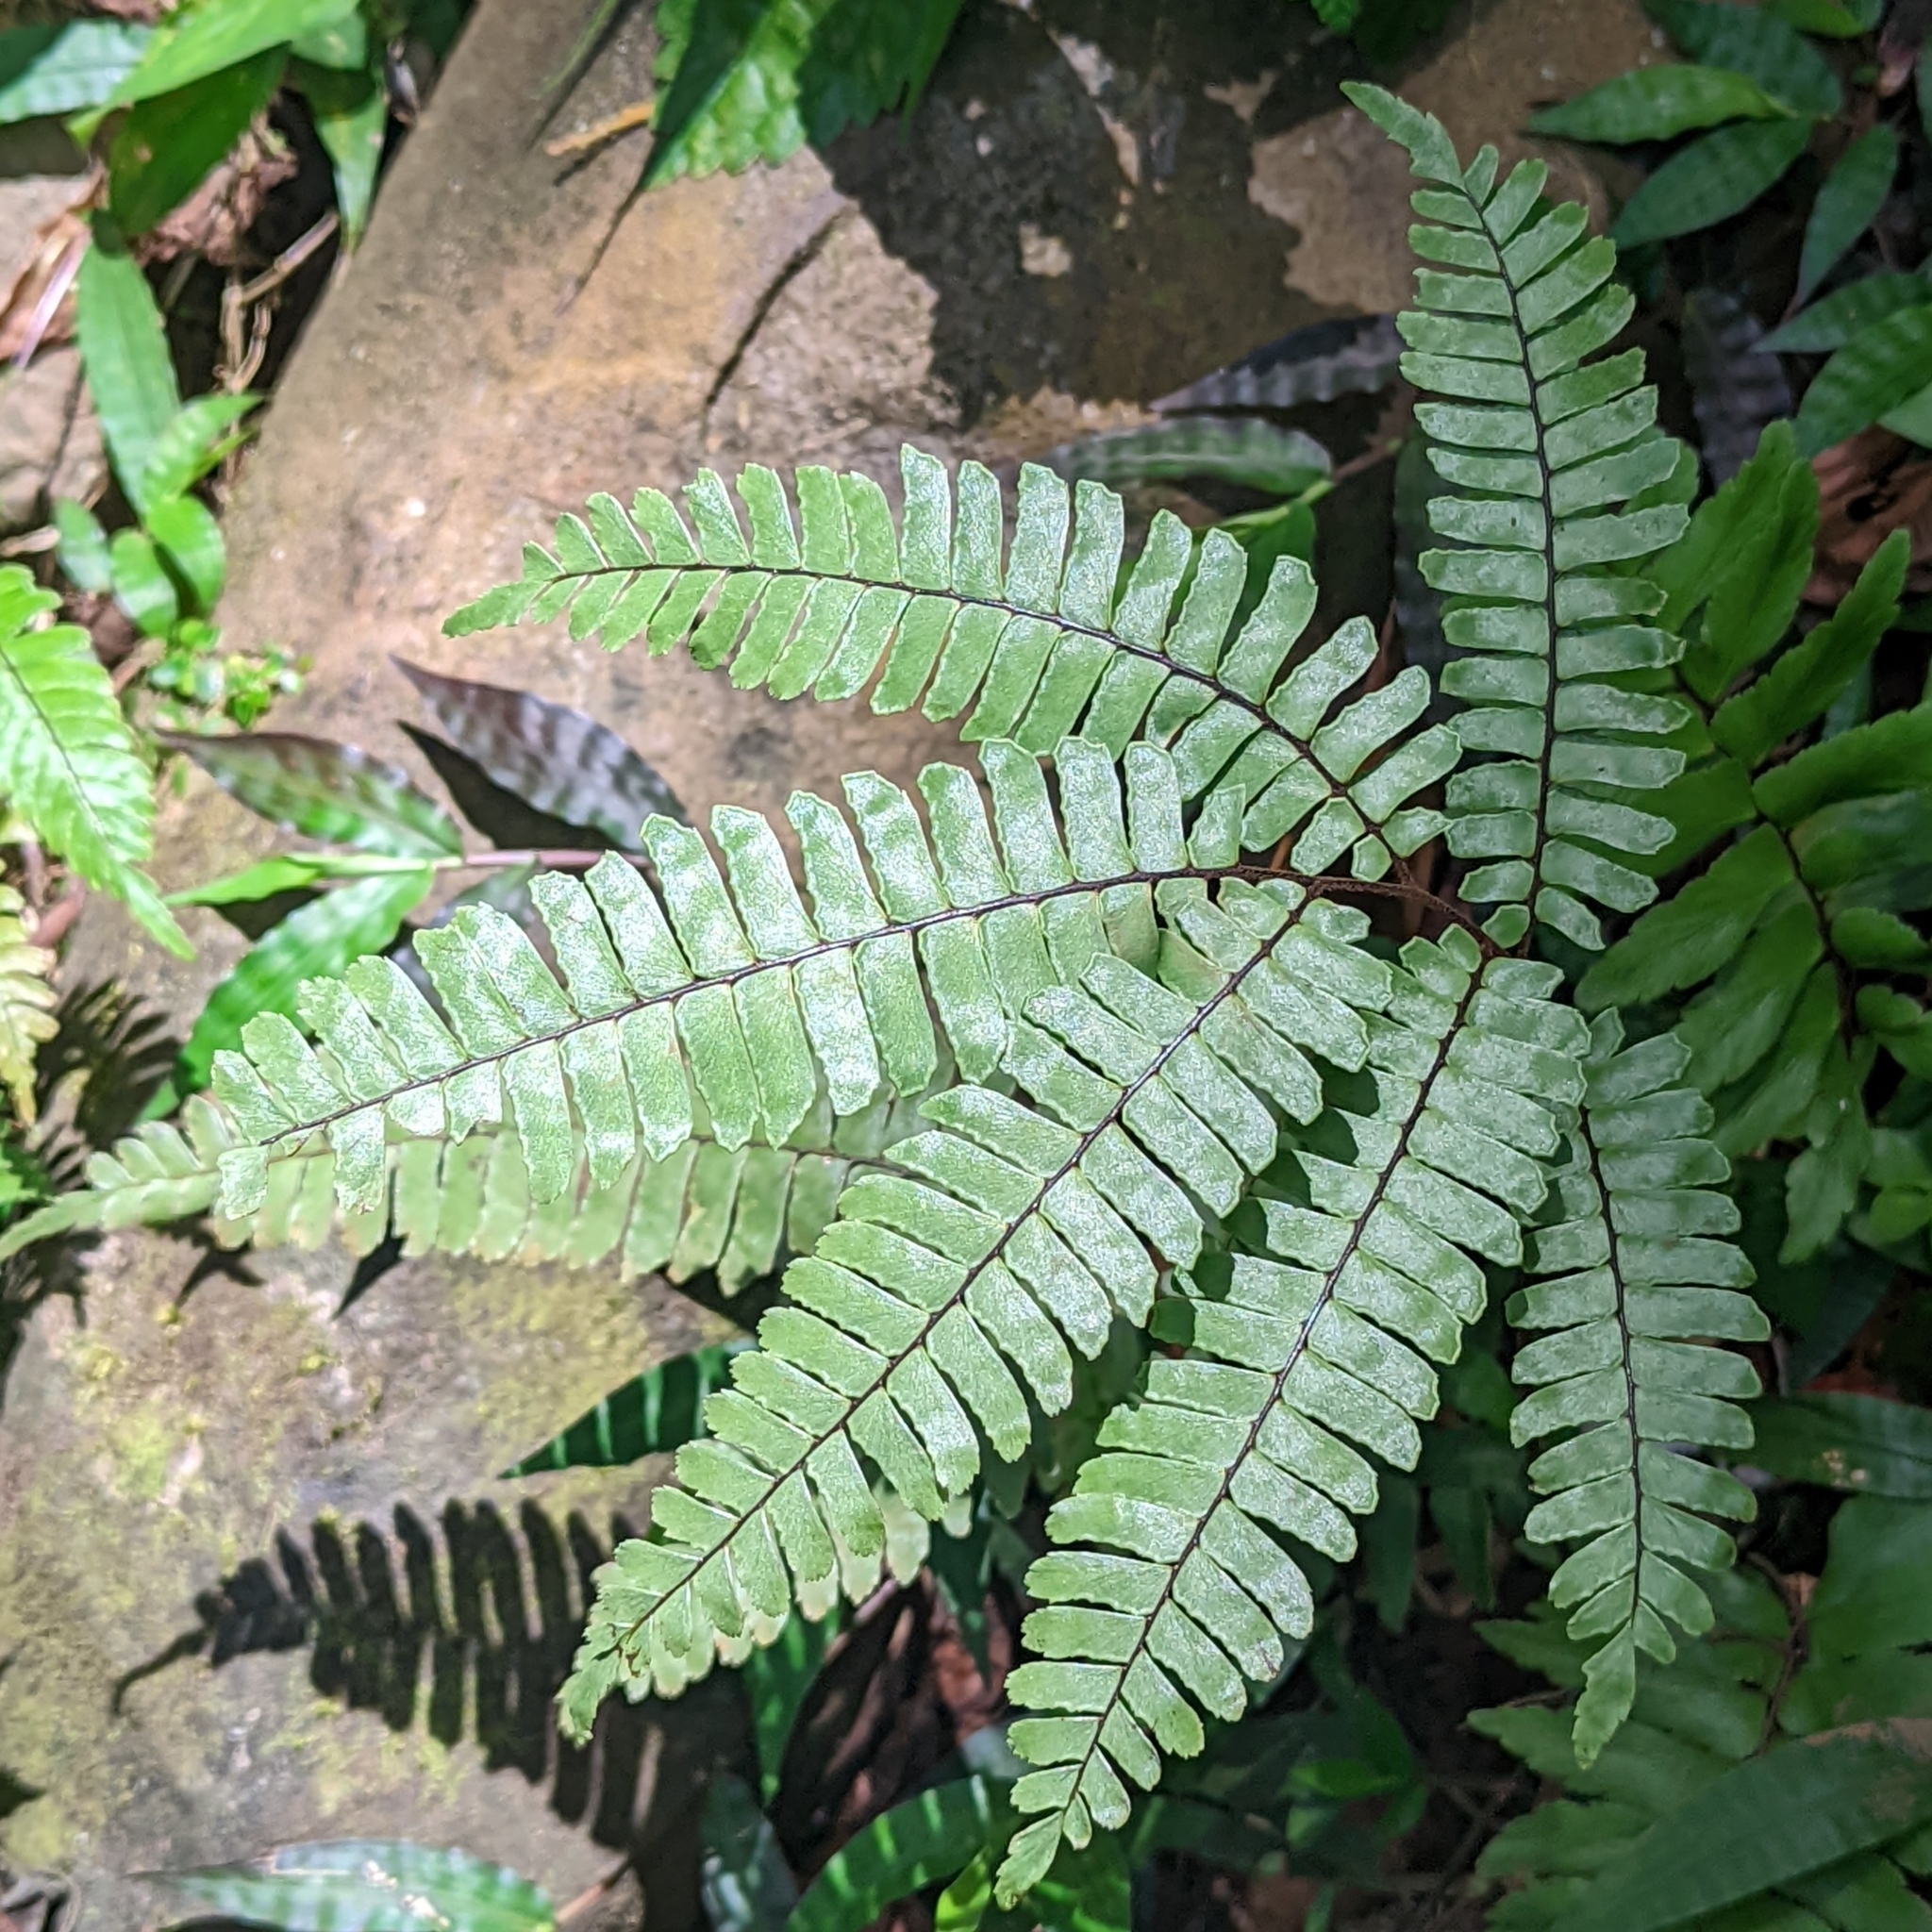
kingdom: Plantae
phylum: Tracheophyta
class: Polypodiopsida
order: Polypodiales
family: Pteridaceae
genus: Adiantum
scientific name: Adiantum tetraphyllum
